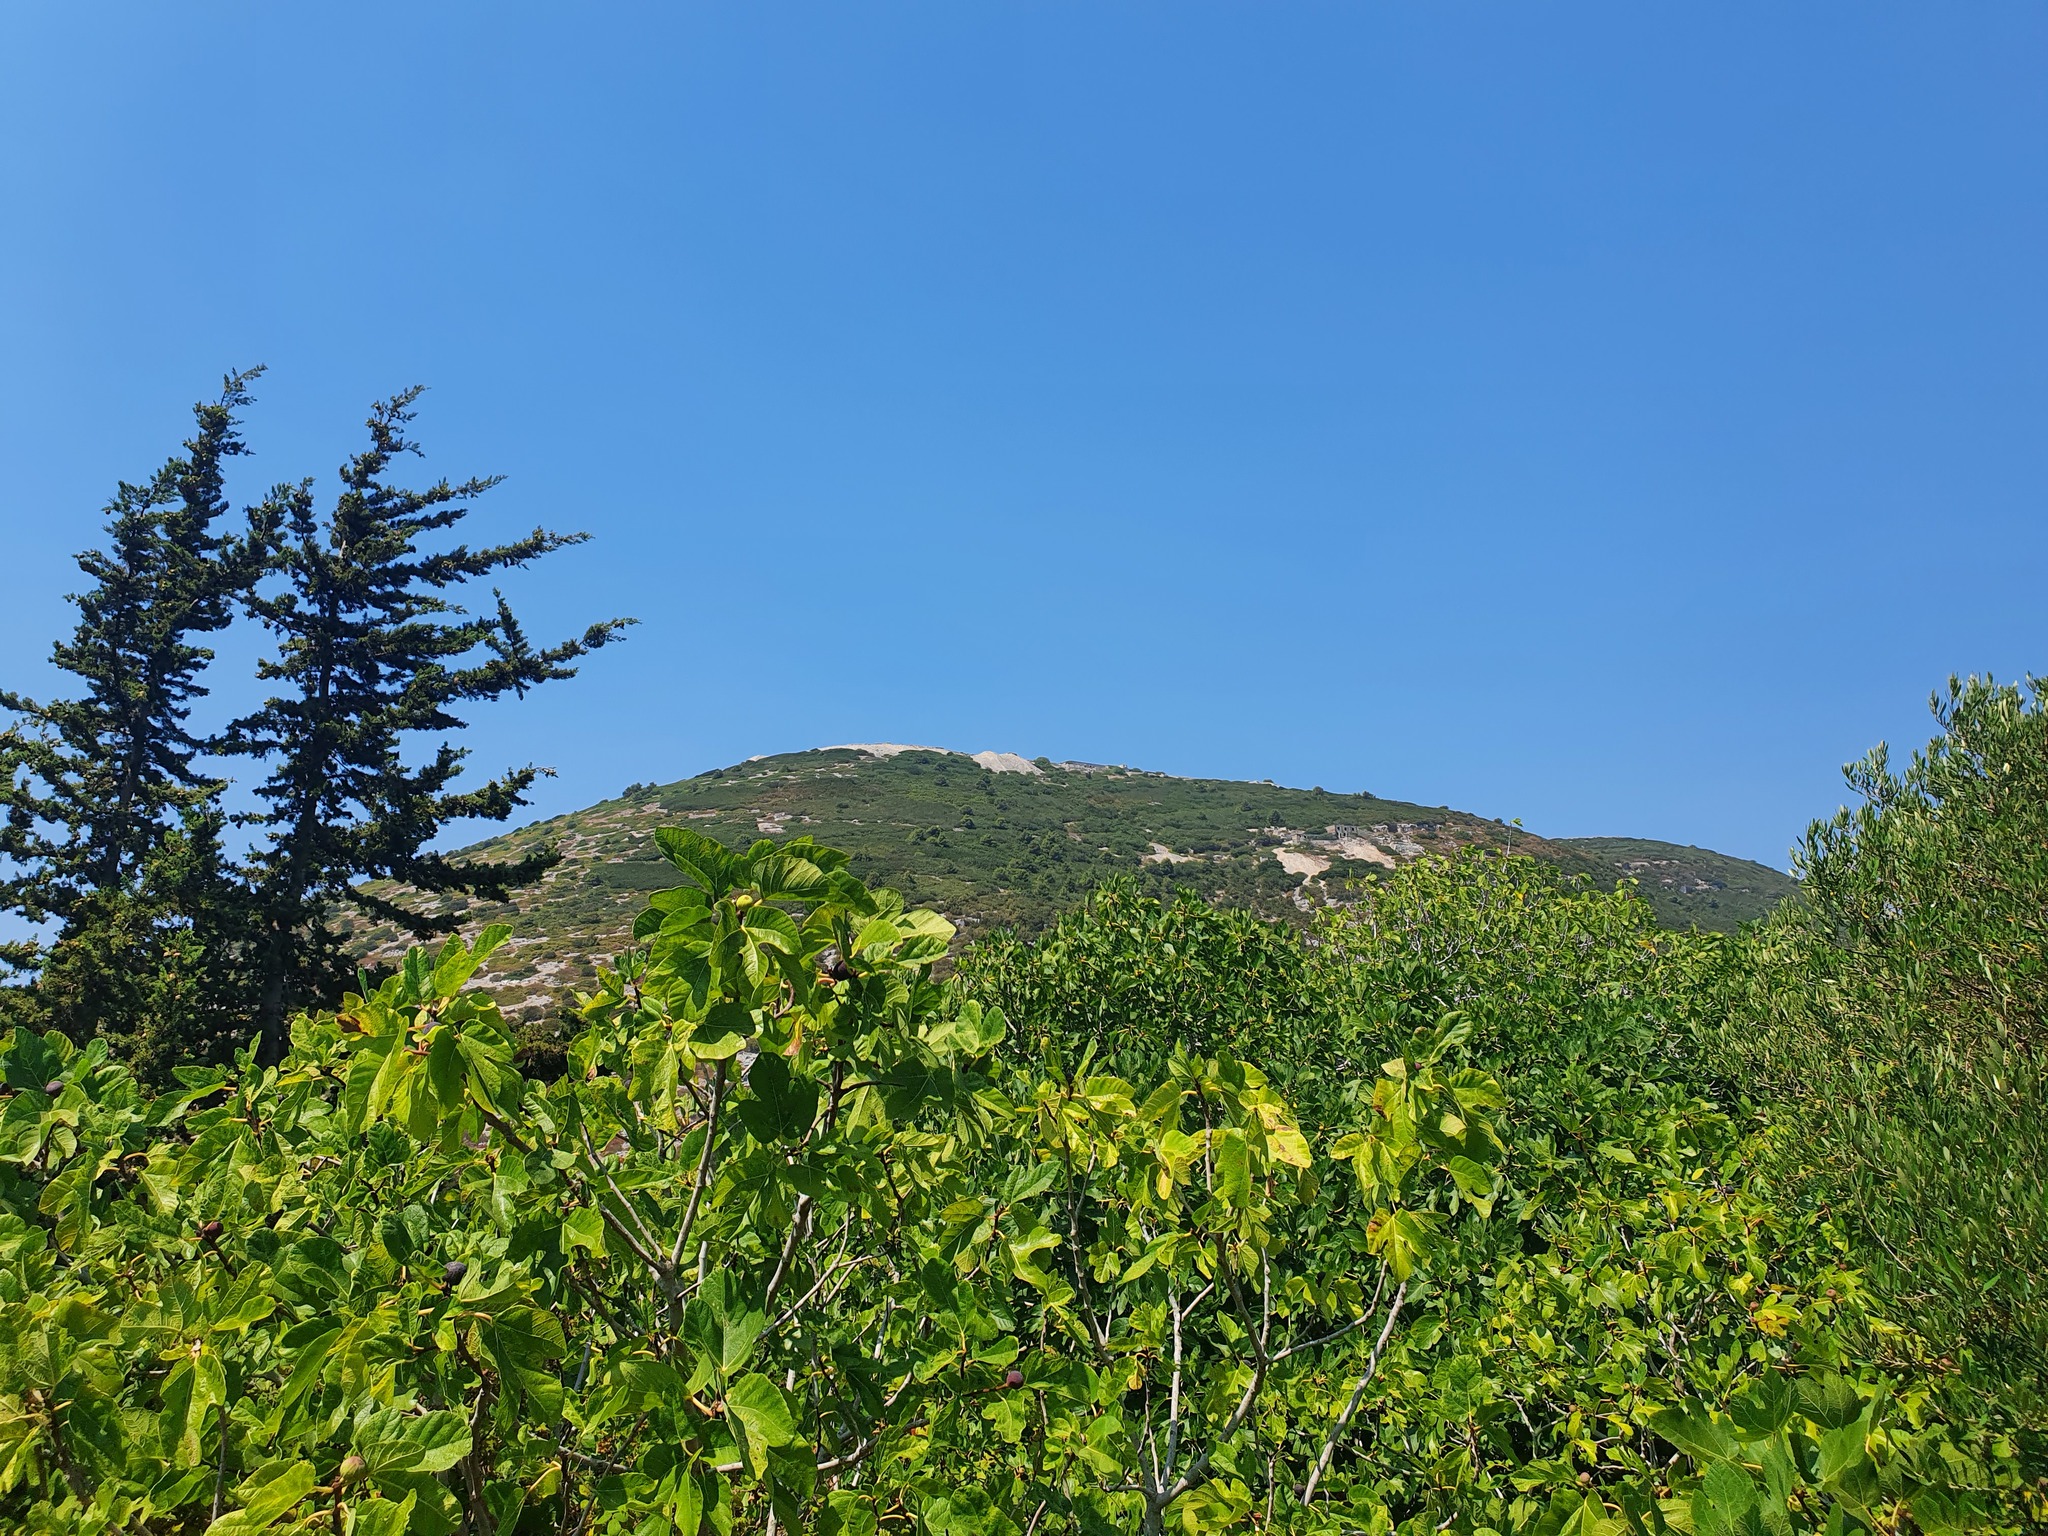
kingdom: Plantae
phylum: Tracheophyta
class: Magnoliopsida
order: Rosales
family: Moraceae
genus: Ficus
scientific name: Ficus carica
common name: Fig
